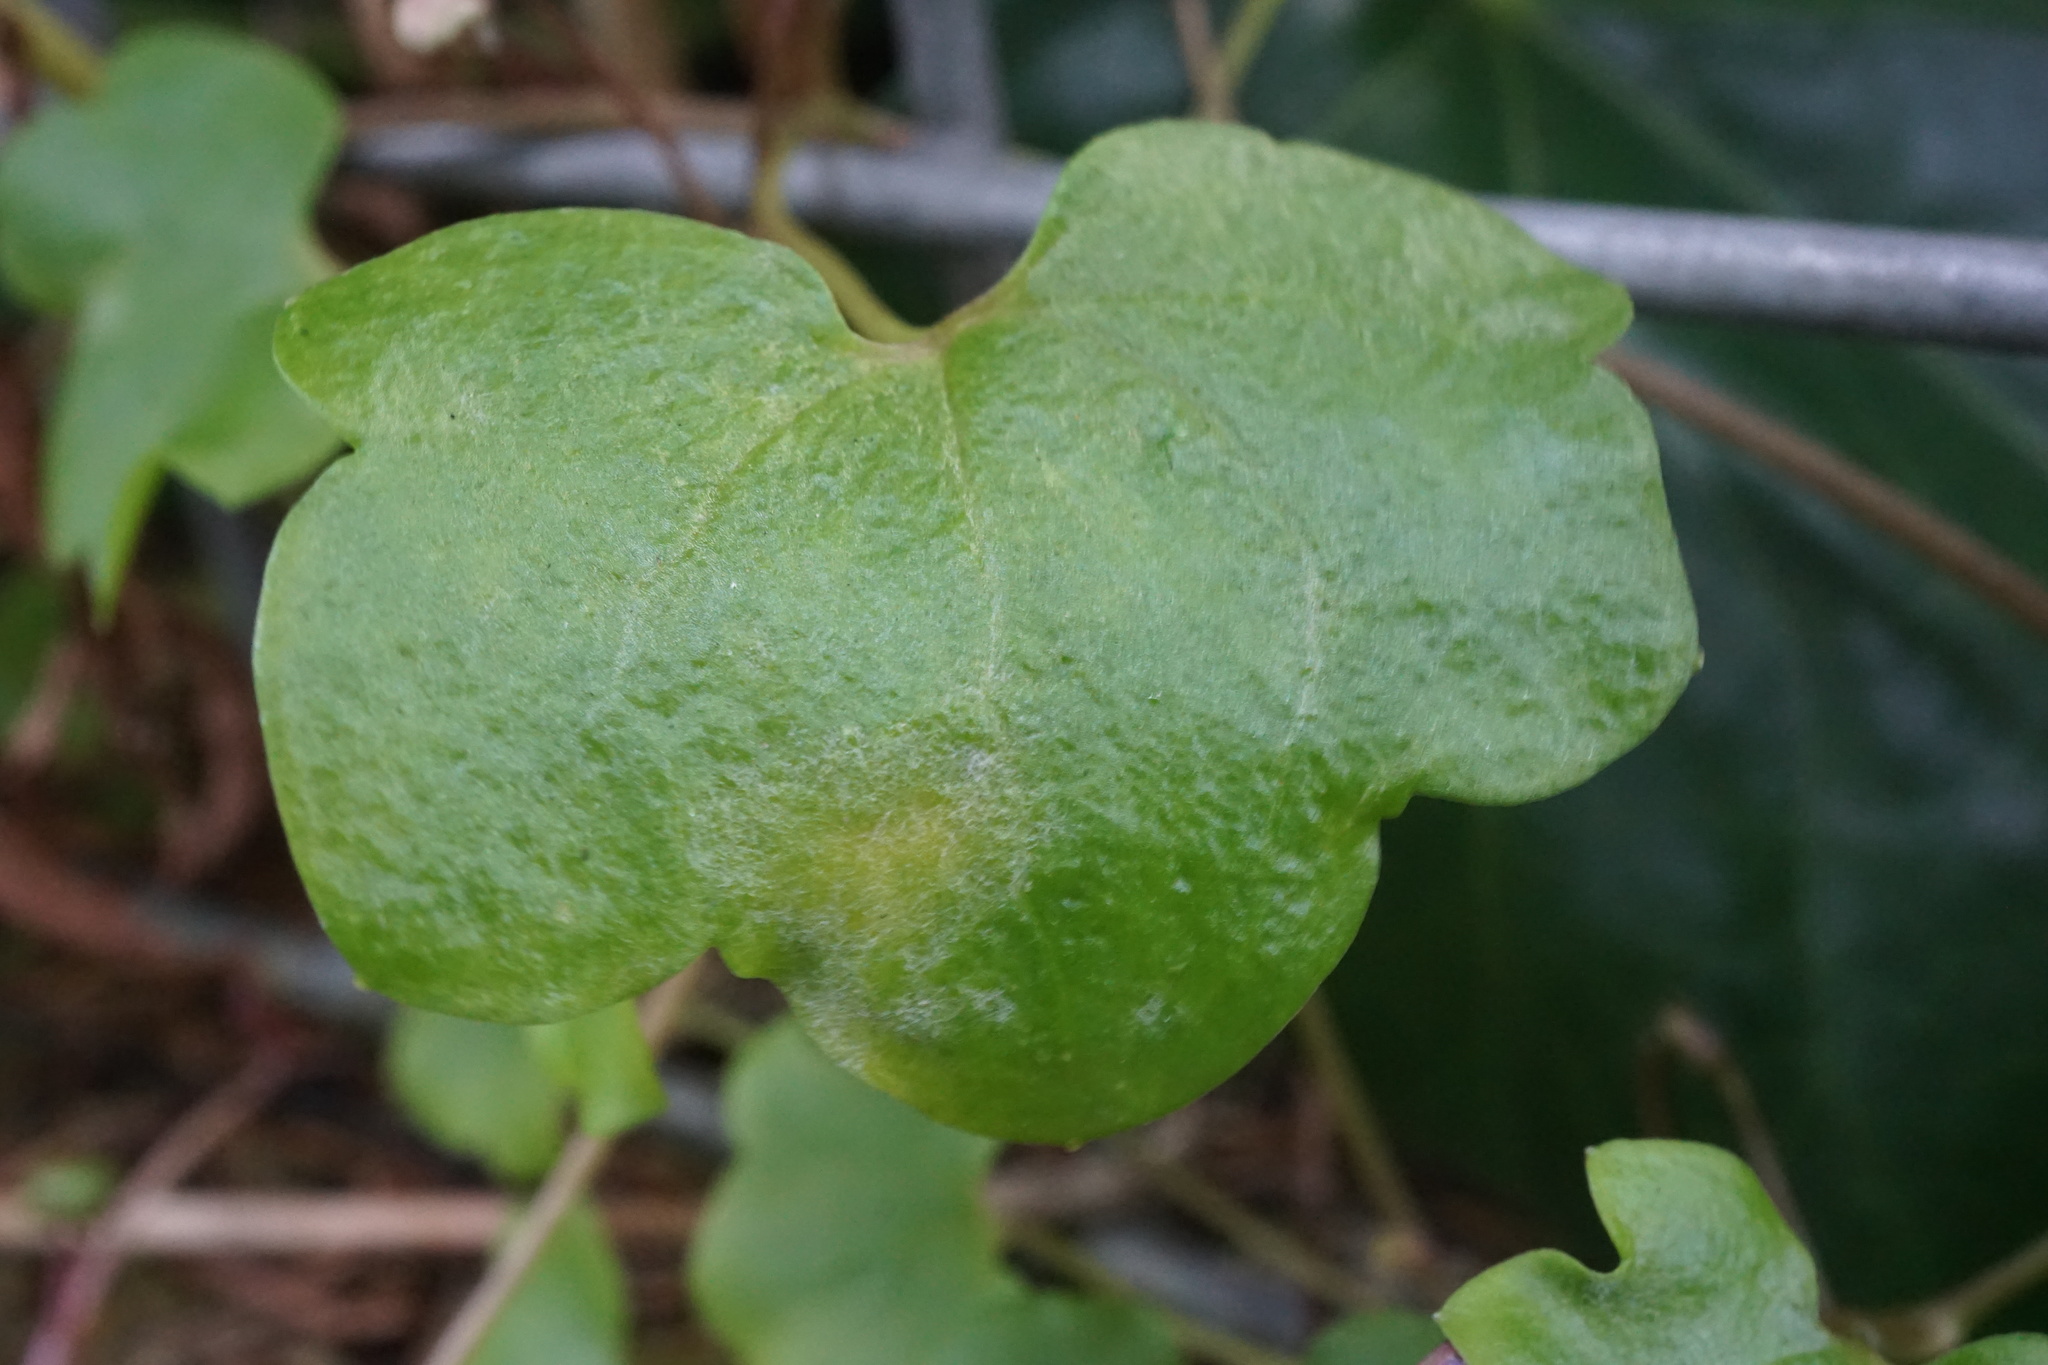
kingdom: Plantae
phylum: Tracheophyta
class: Magnoliopsida
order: Lamiales
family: Plantaginaceae
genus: Cymbalaria
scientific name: Cymbalaria muralis
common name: Ivy-leaved toadflax
